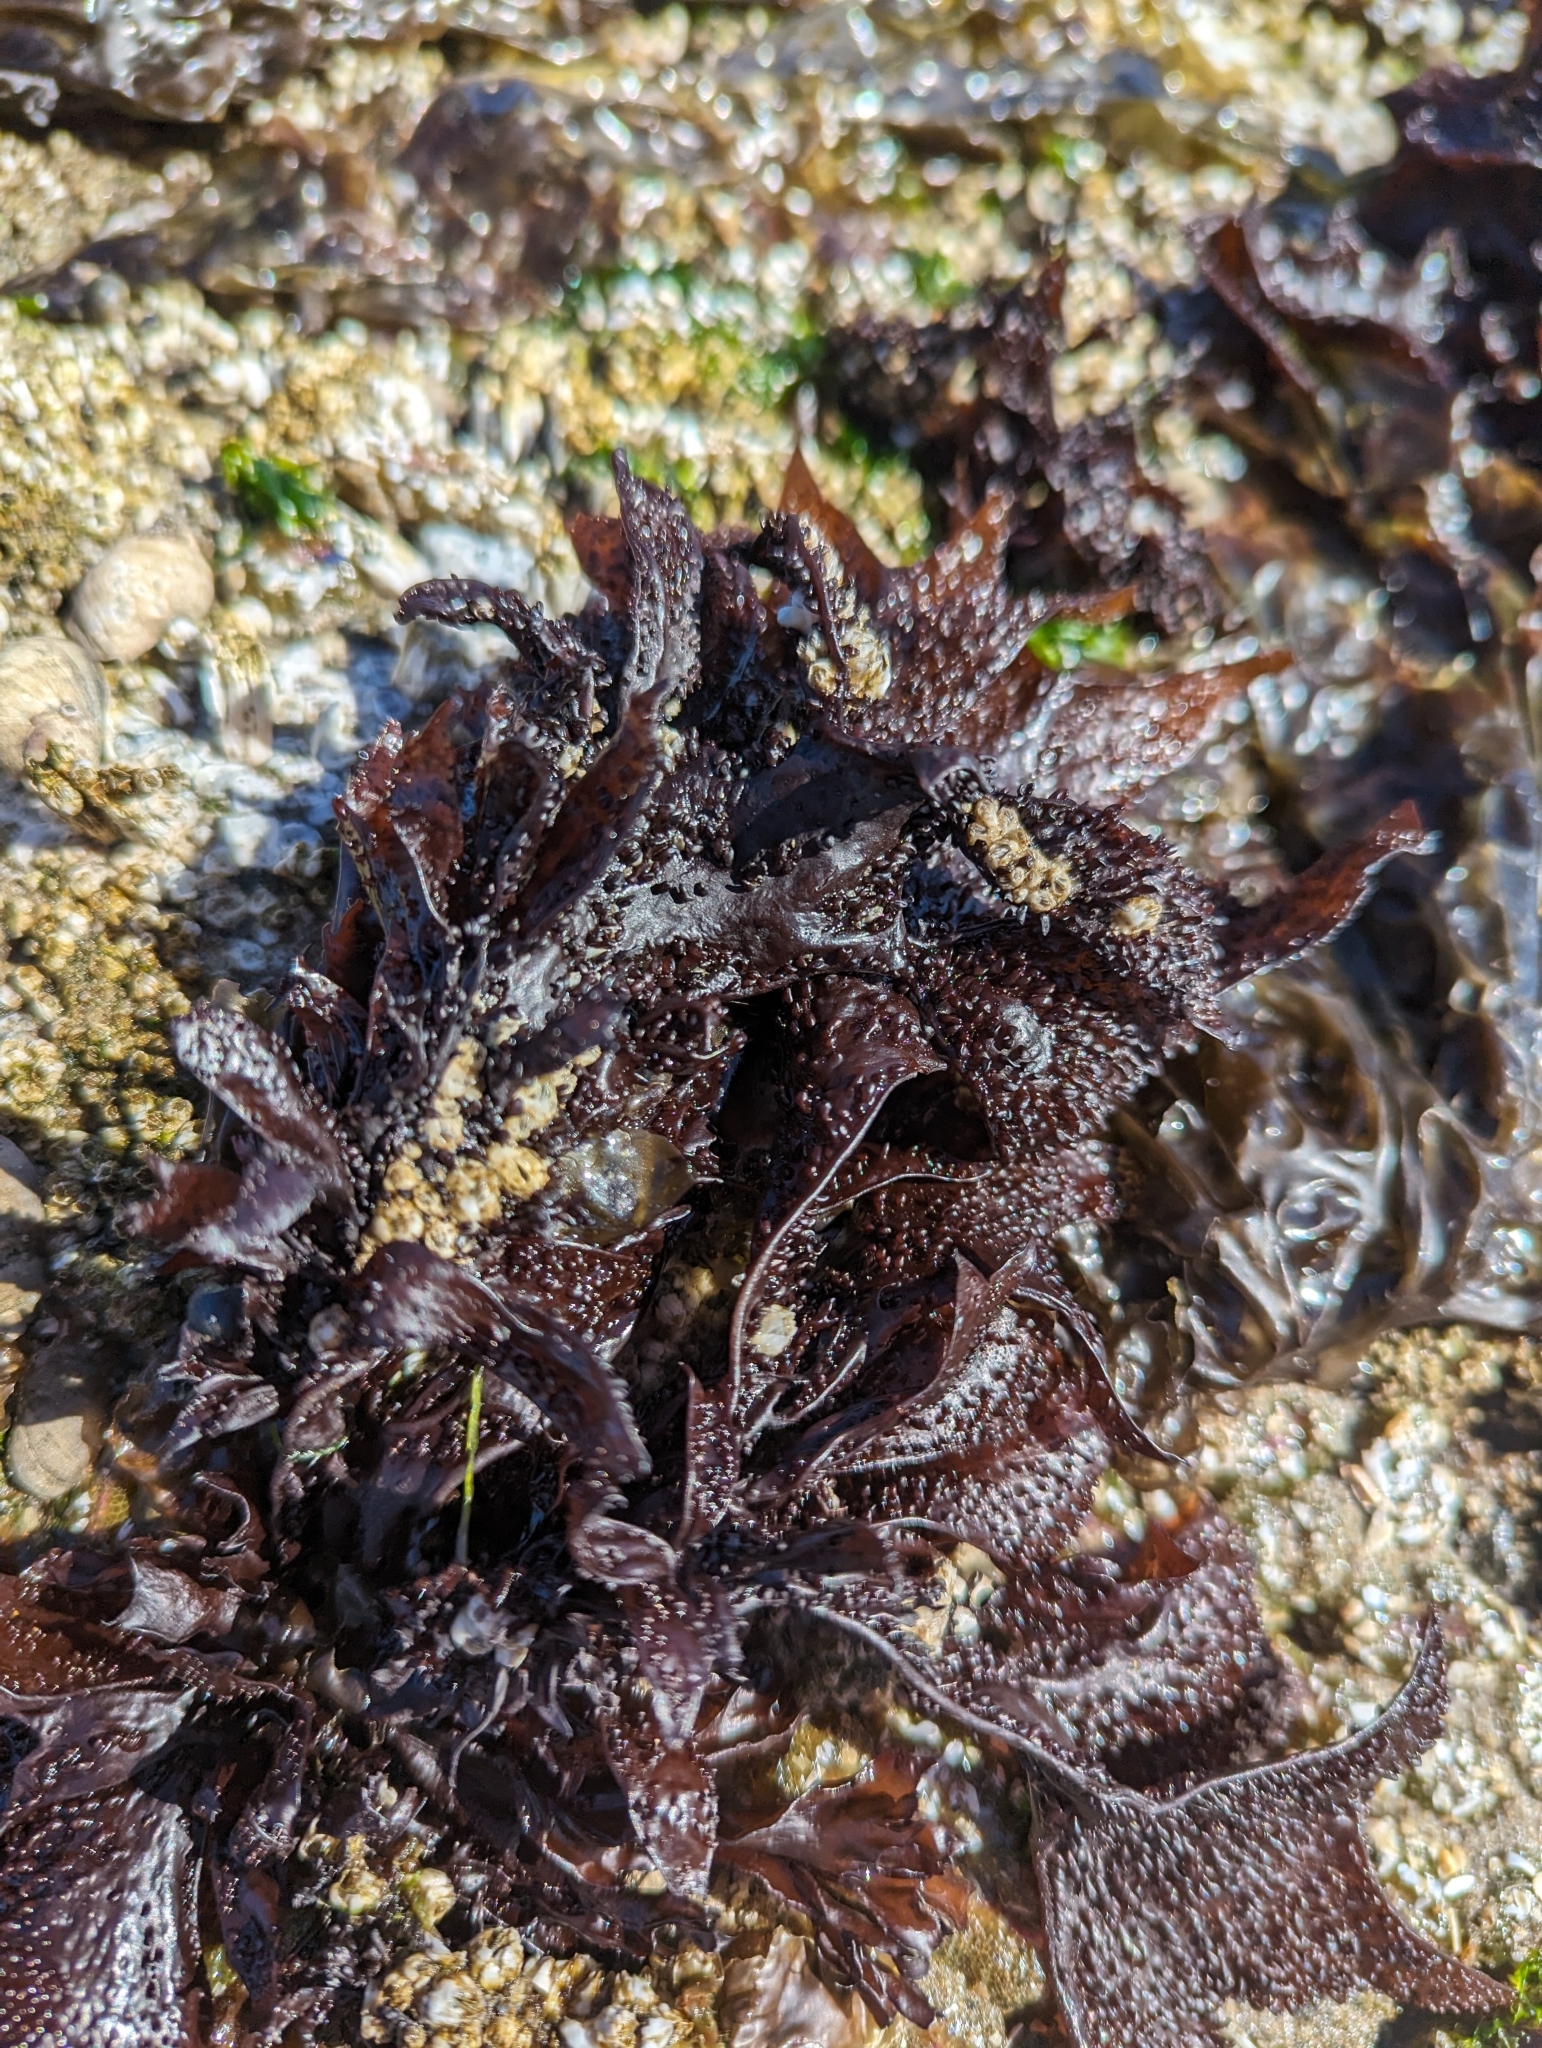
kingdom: Plantae
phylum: Rhodophyta
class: Florideophyceae
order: Gigartinales
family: Phyllophoraceae
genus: Mastocarpus
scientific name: Mastocarpus papillatus
